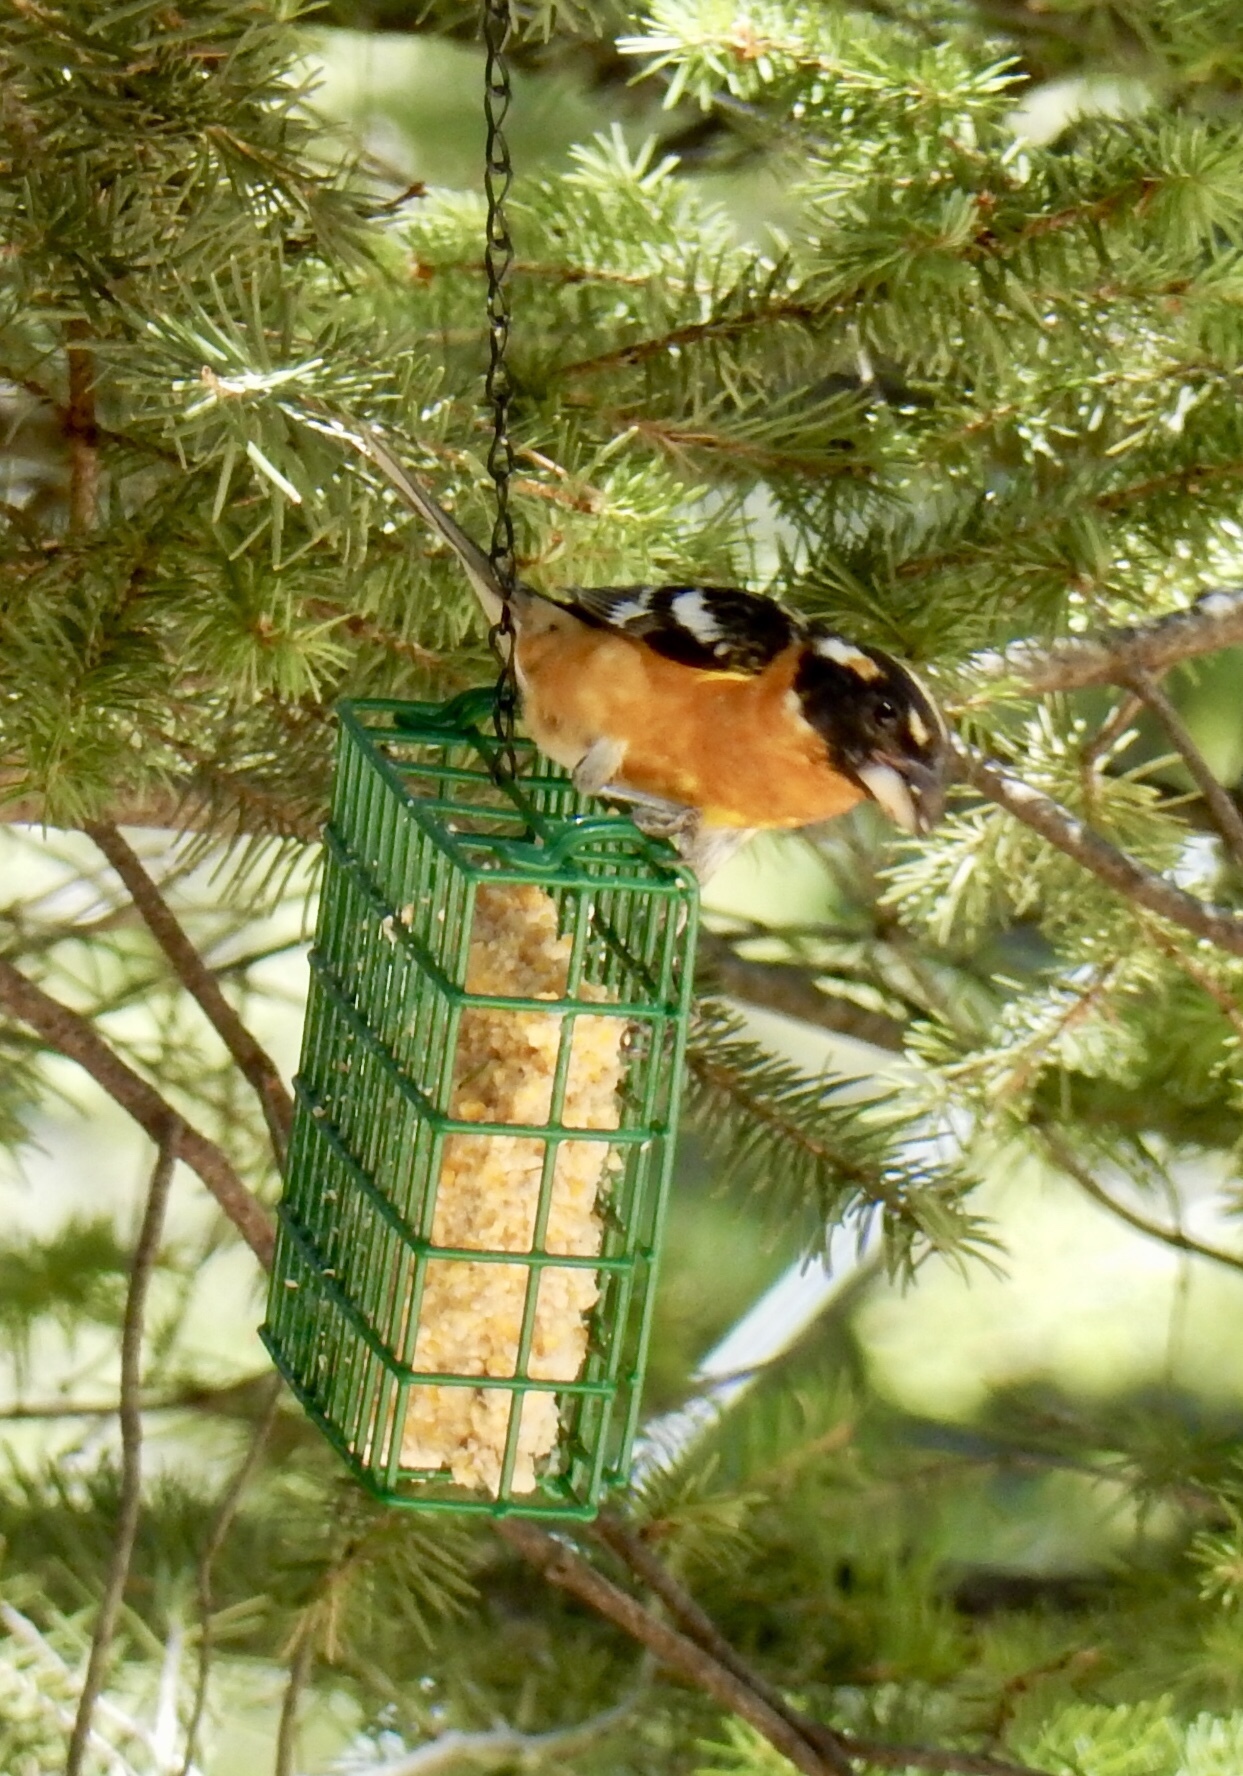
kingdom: Animalia
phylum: Chordata
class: Aves
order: Passeriformes
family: Cardinalidae
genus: Pheucticus
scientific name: Pheucticus melanocephalus
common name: Black-headed grosbeak
